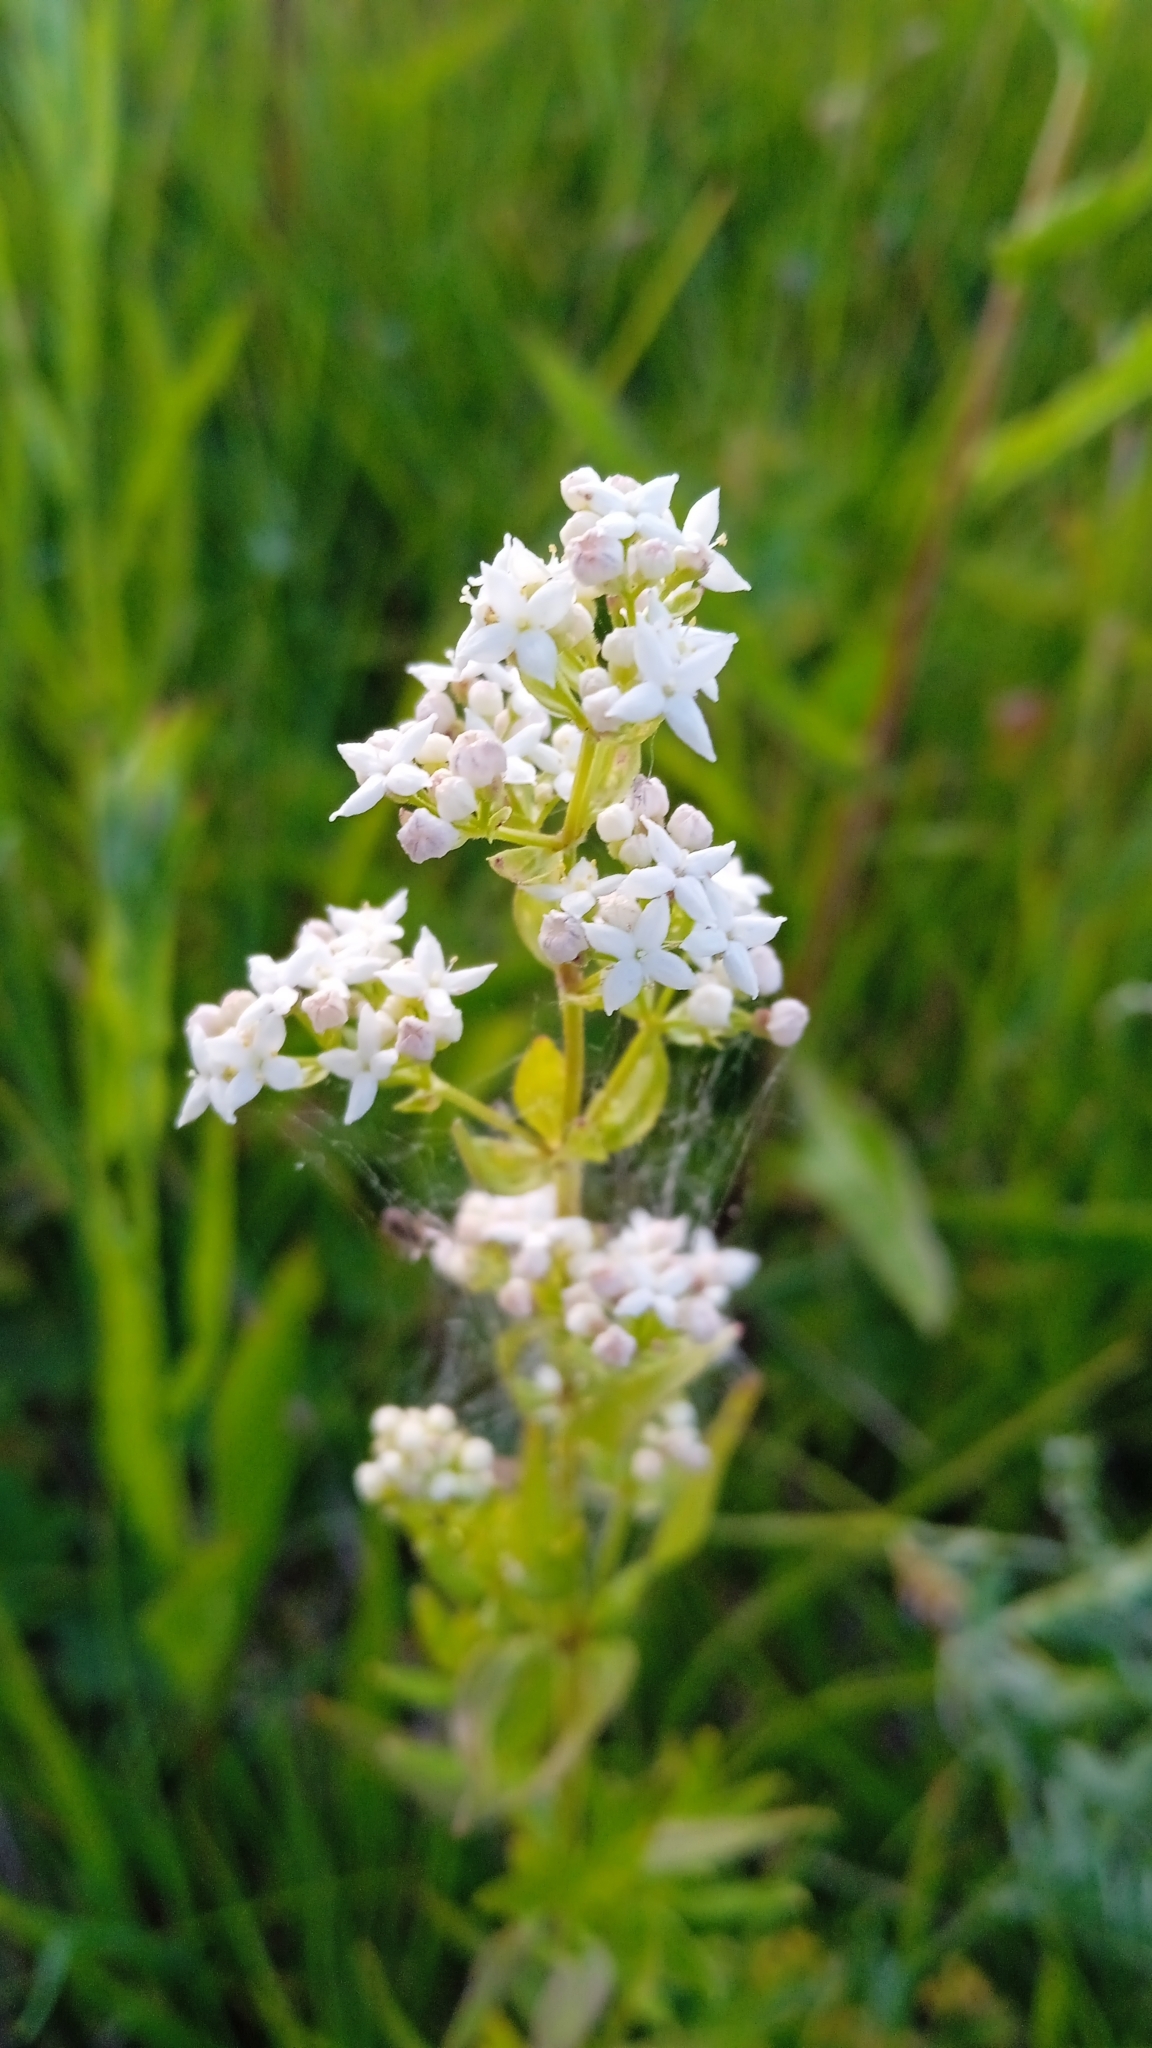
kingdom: Plantae
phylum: Tracheophyta
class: Magnoliopsida
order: Gentianales
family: Rubiaceae
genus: Galium
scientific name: Galium boreale
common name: Northern bedstraw
